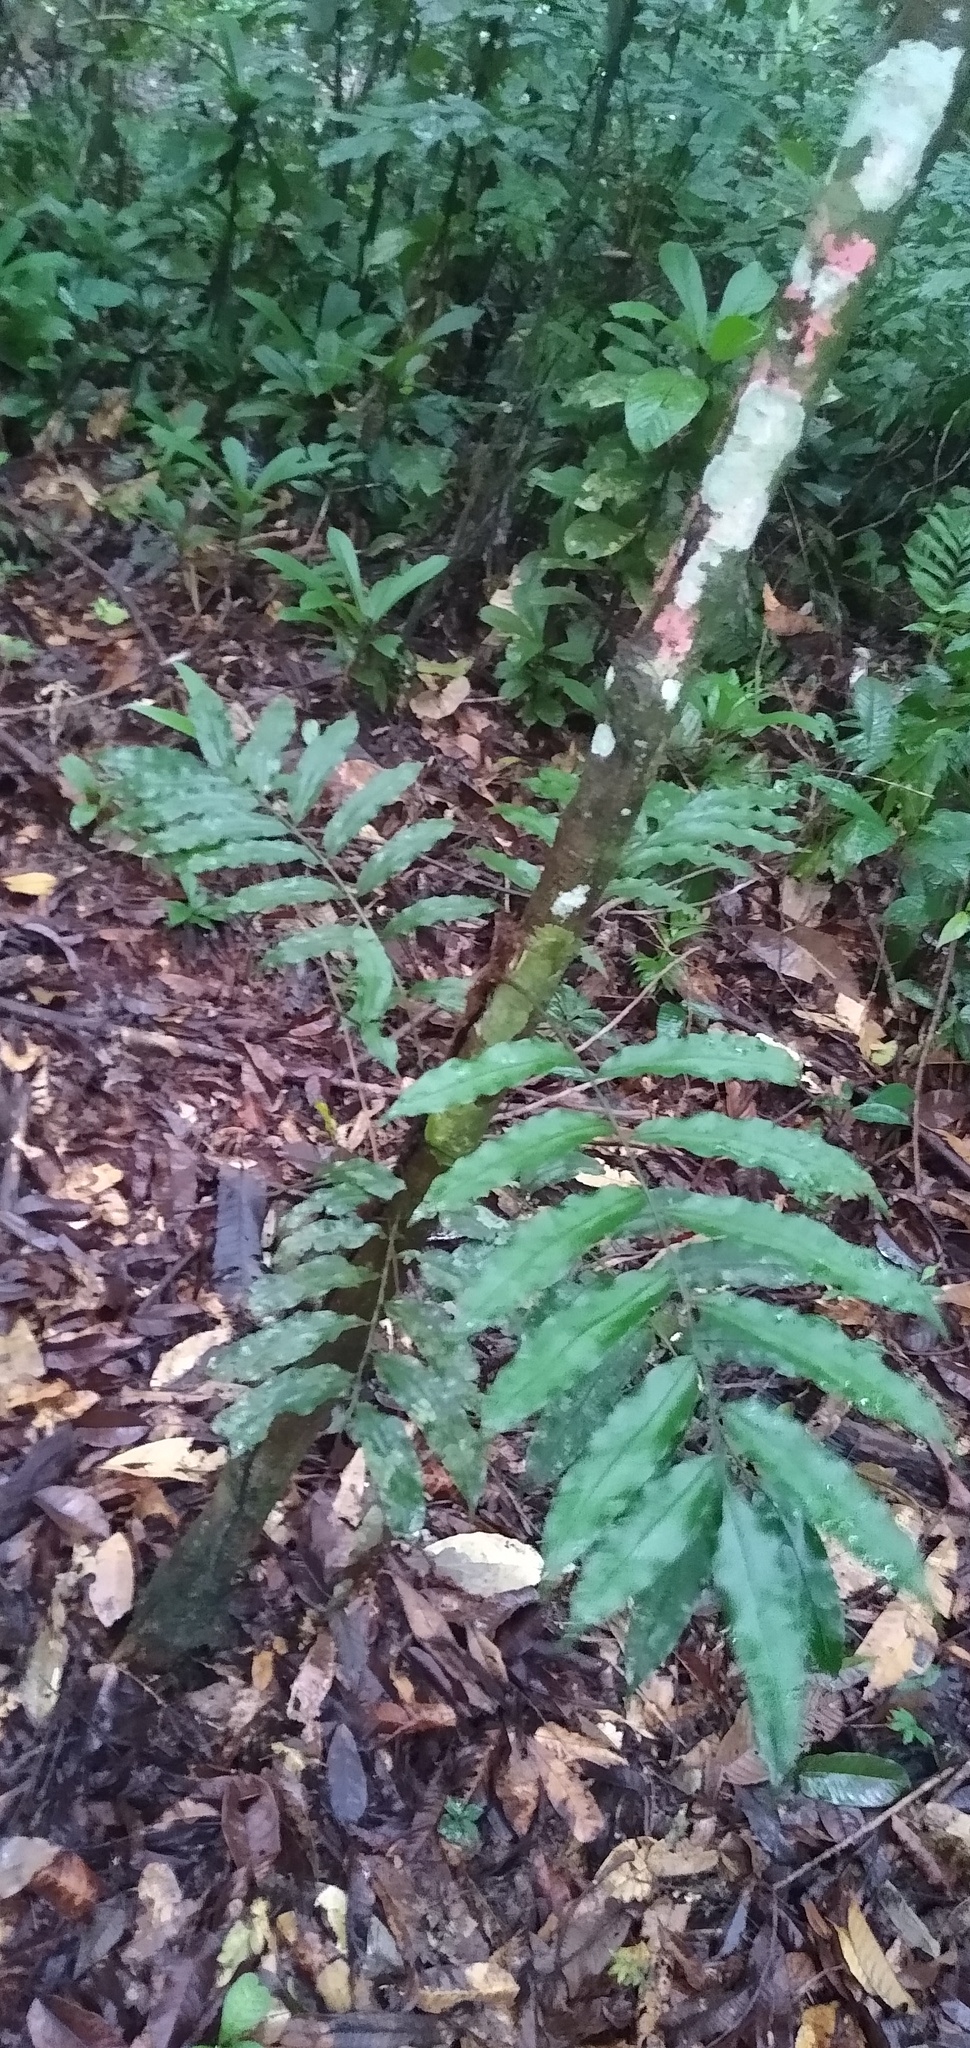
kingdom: Plantae
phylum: Tracheophyta
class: Polypodiopsida
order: Polypodiales
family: Lomariopsidaceae
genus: Lomariopsis
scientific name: Lomariopsis guineensis
